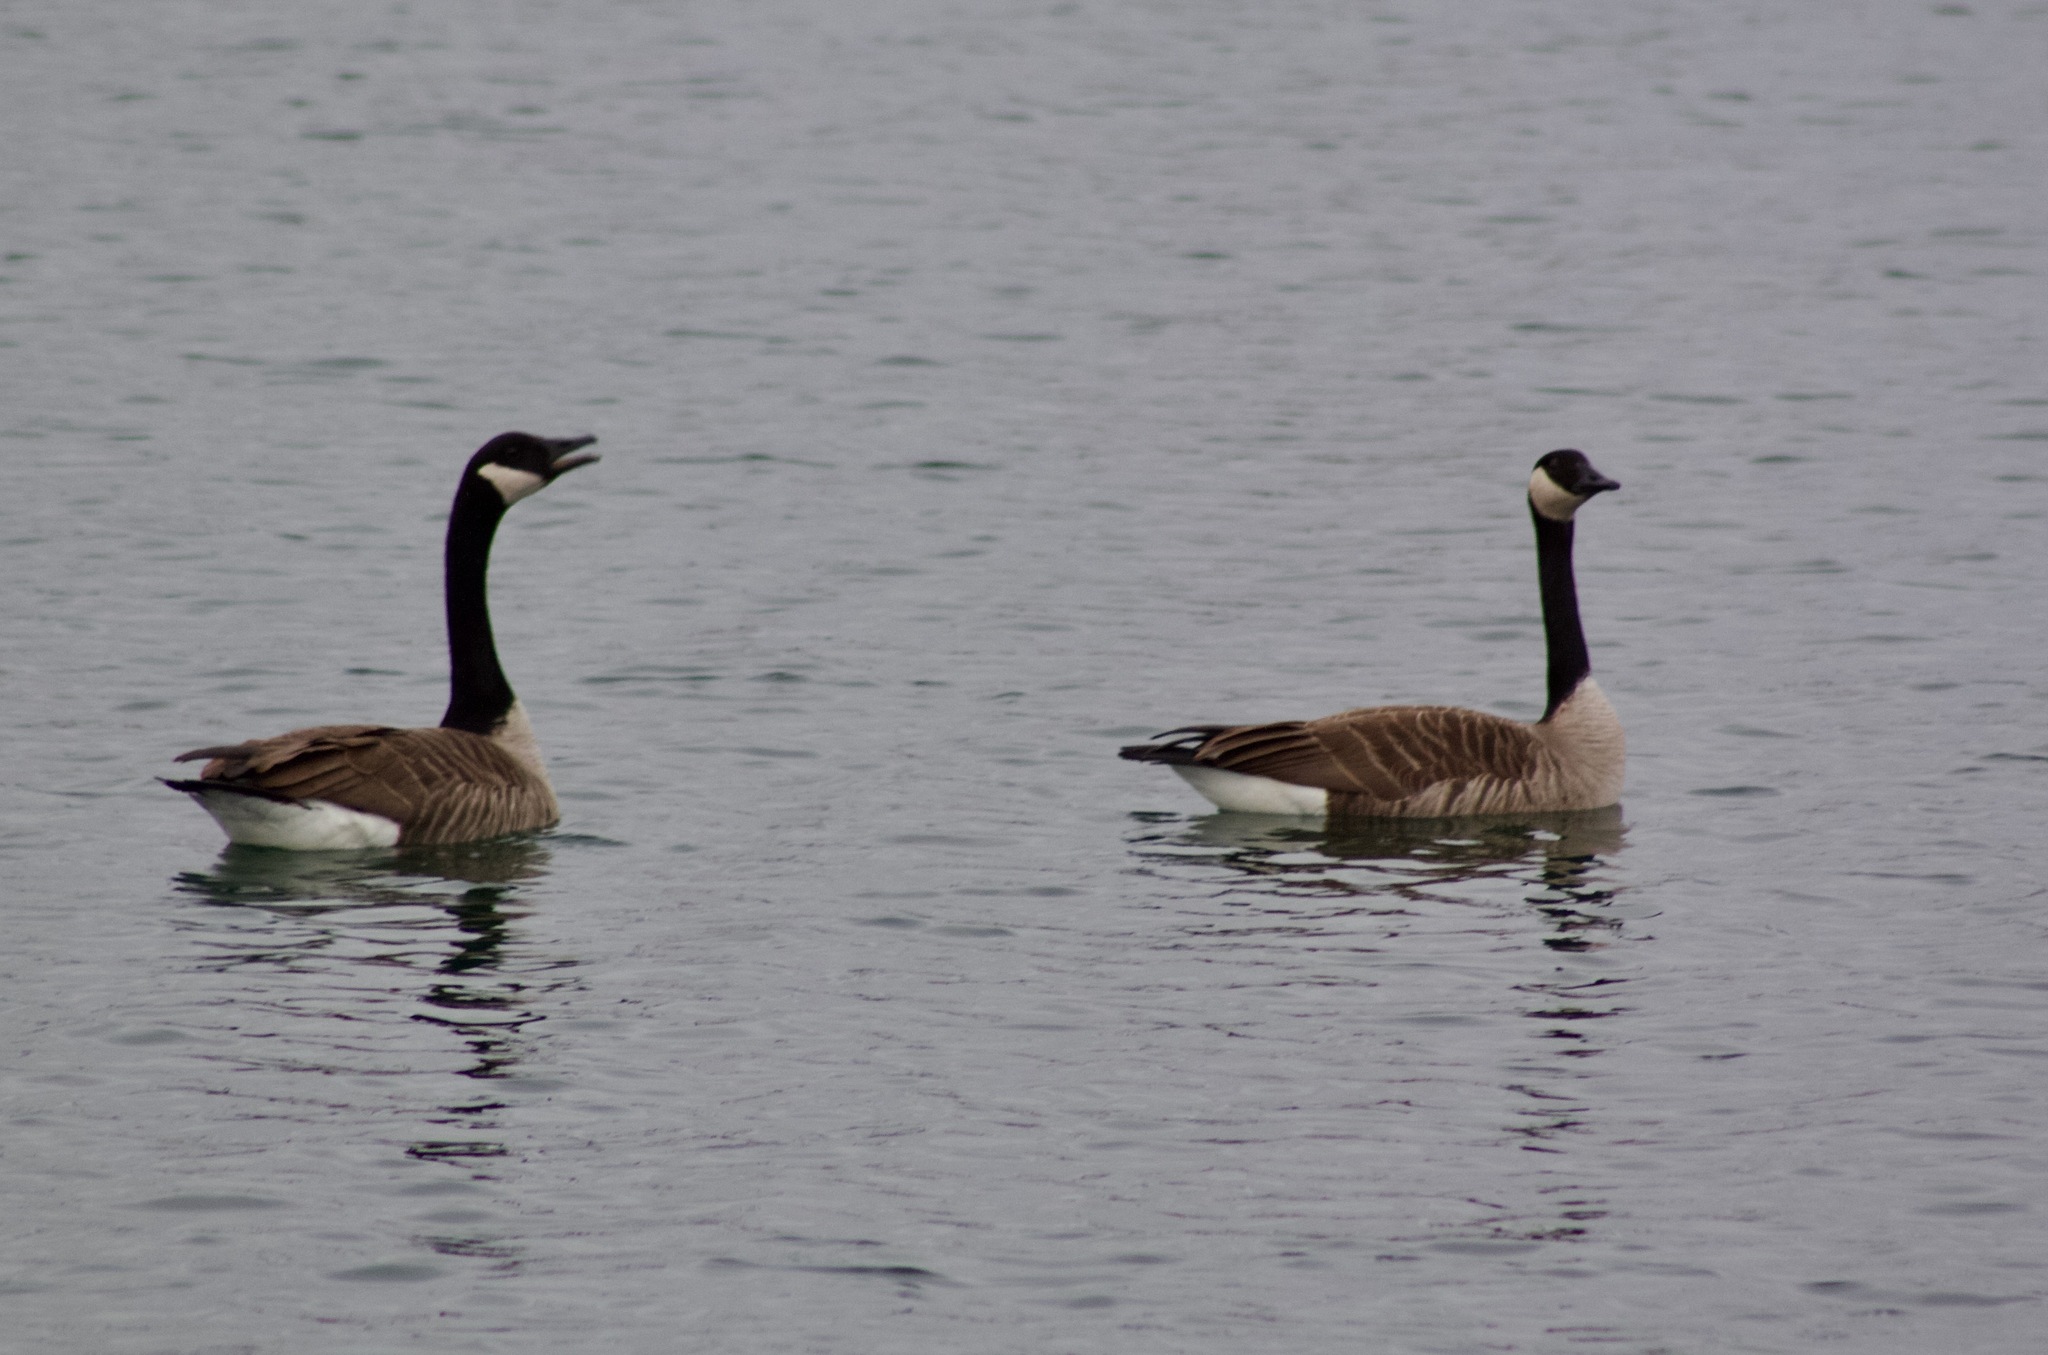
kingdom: Animalia
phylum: Chordata
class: Aves
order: Anseriformes
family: Anatidae
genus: Branta
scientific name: Branta canadensis
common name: Canada goose
